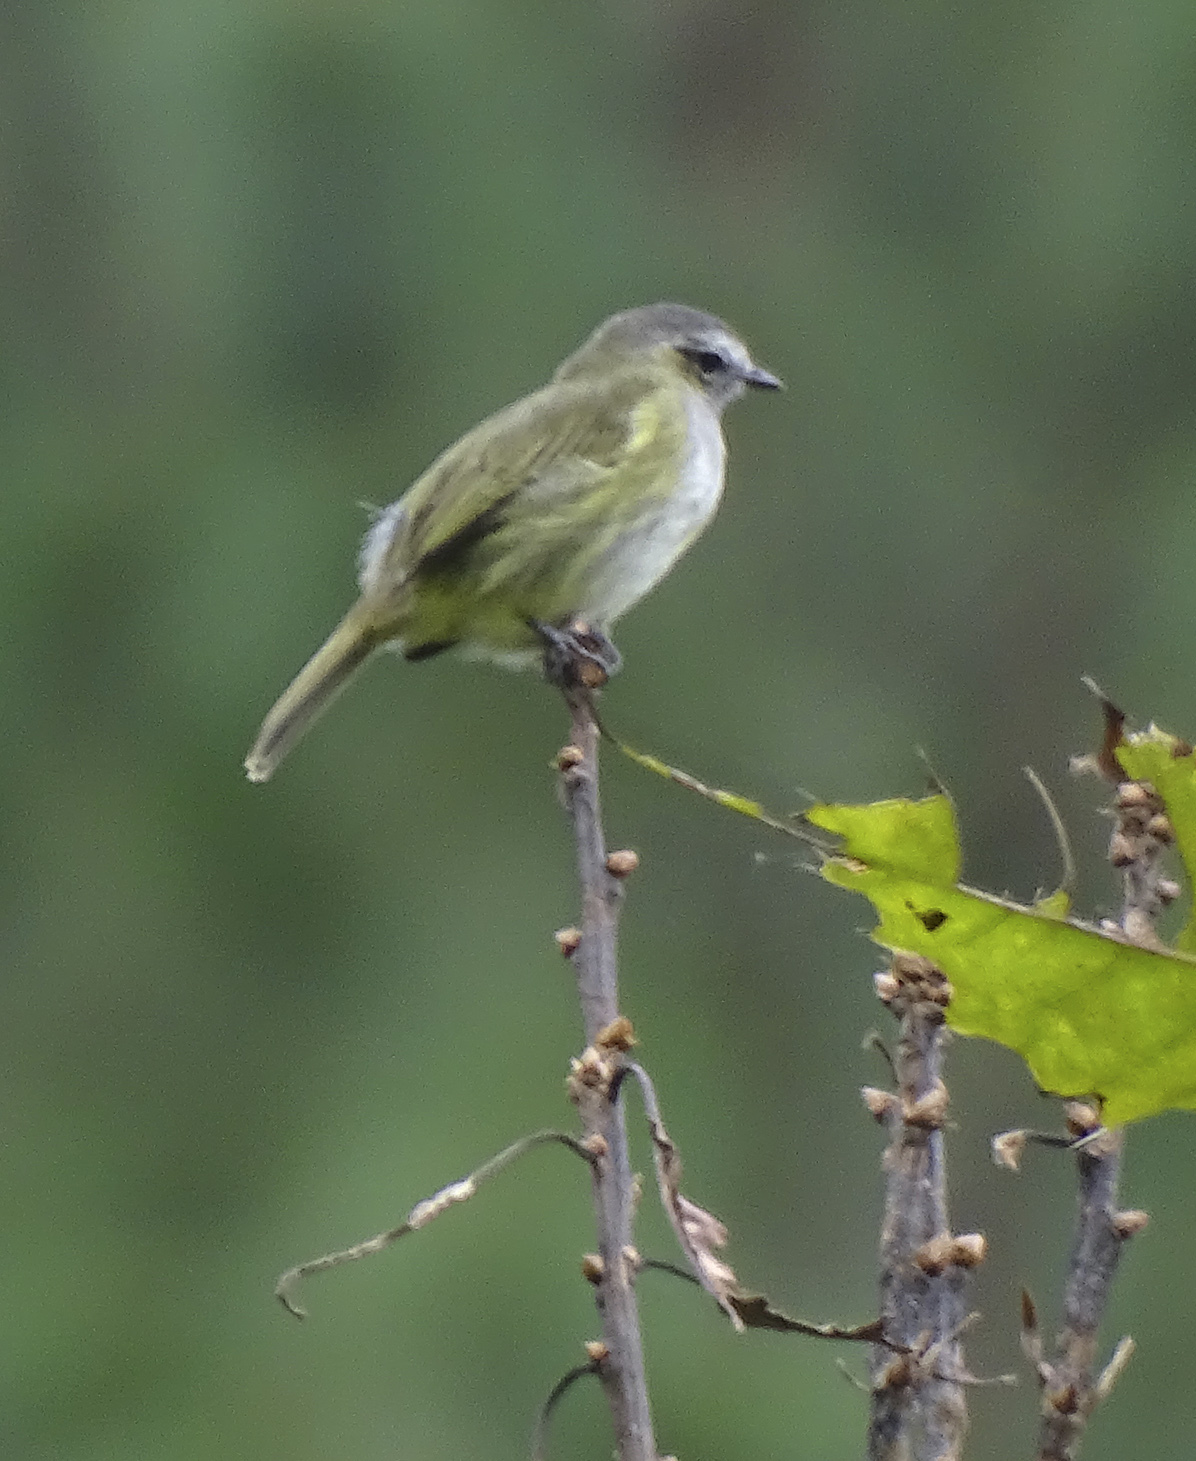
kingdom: Animalia
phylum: Chordata
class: Aves
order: Passeriformes
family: Tyrannidae
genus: Zimmerius
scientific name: Zimmerius vilissimus
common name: Paltry tyrannulet
